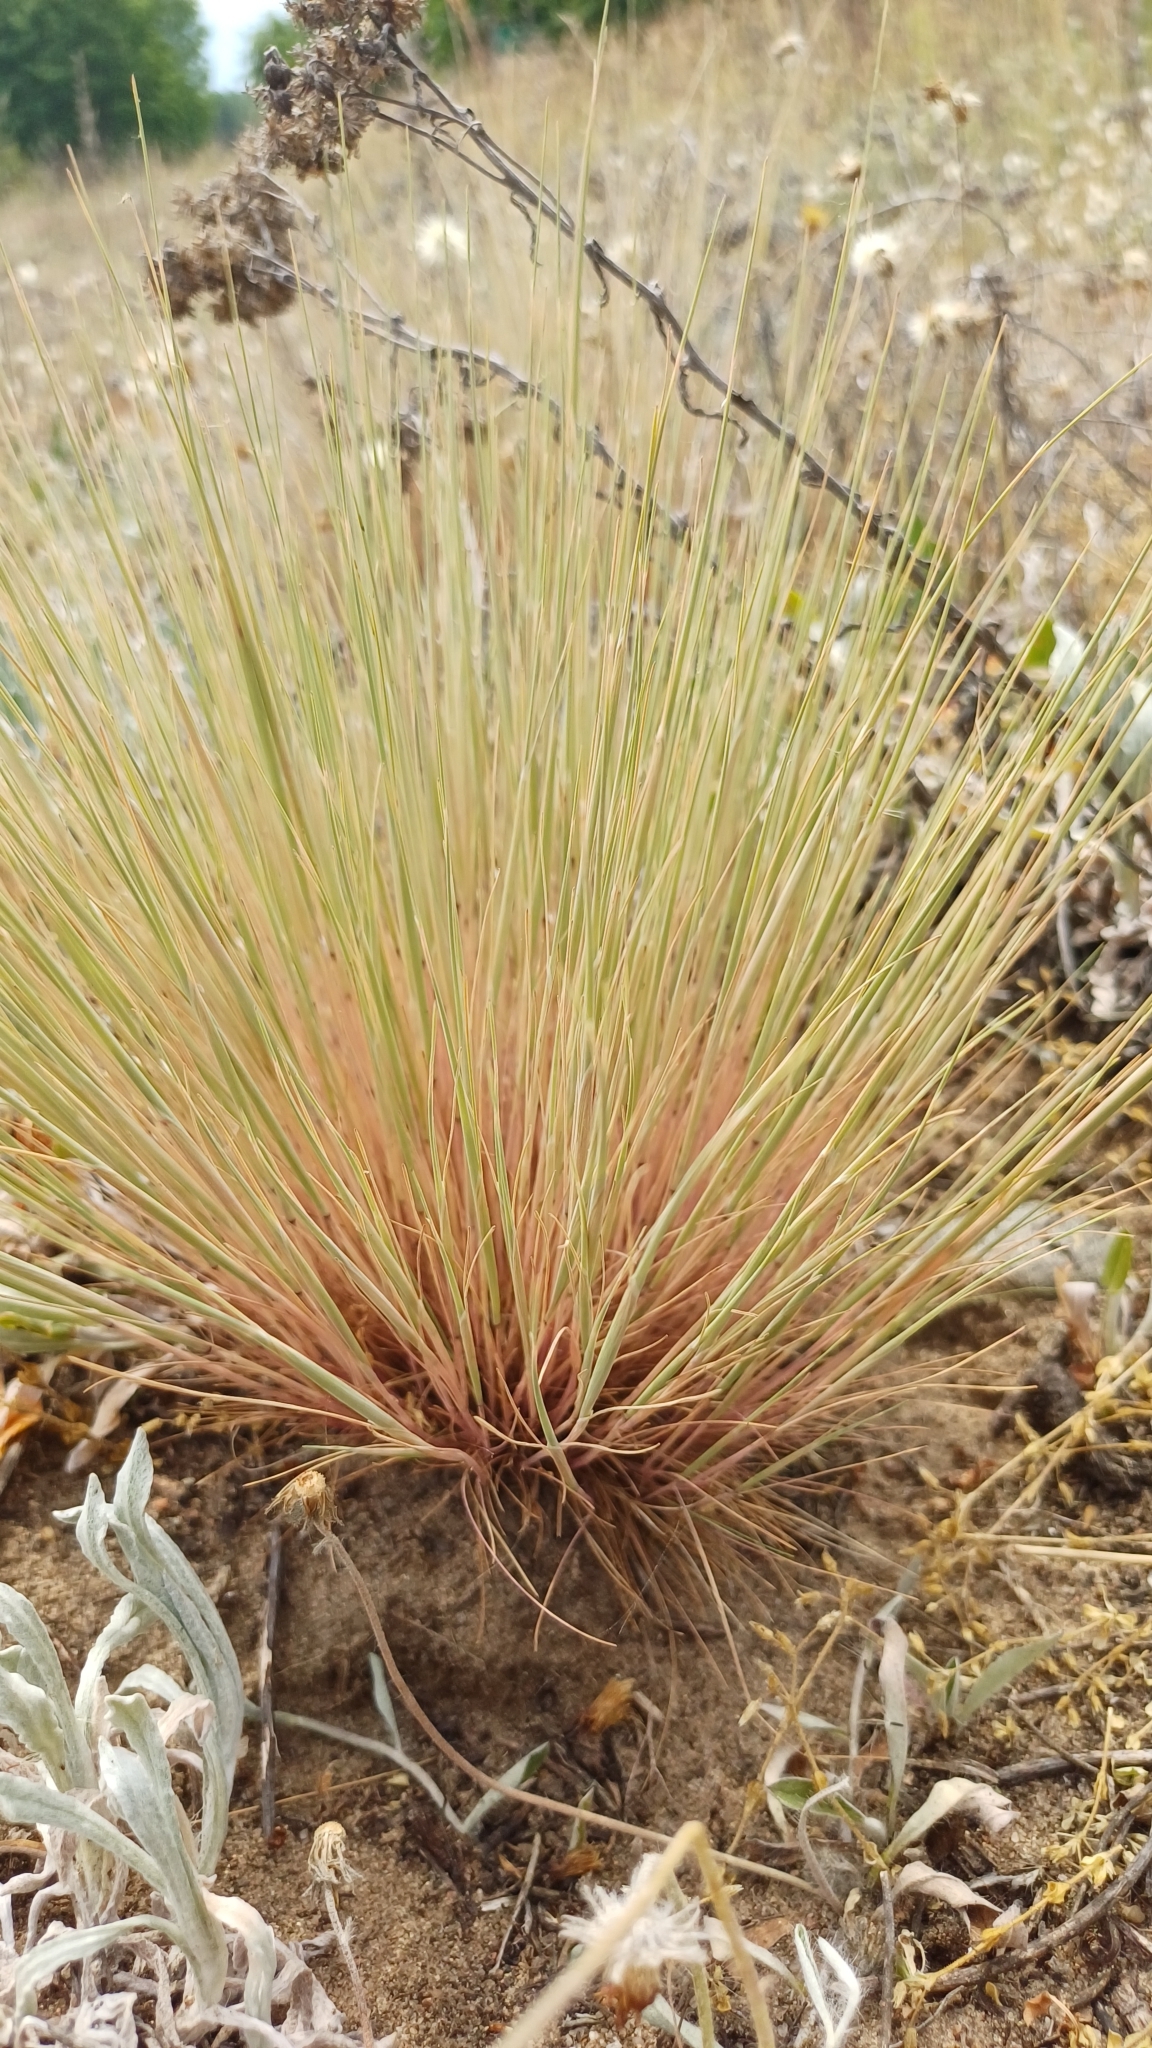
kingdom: Plantae
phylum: Tracheophyta
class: Liliopsida
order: Poales
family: Poaceae
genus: Corynephorus
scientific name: Corynephorus canescens
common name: Grey hair-grass
